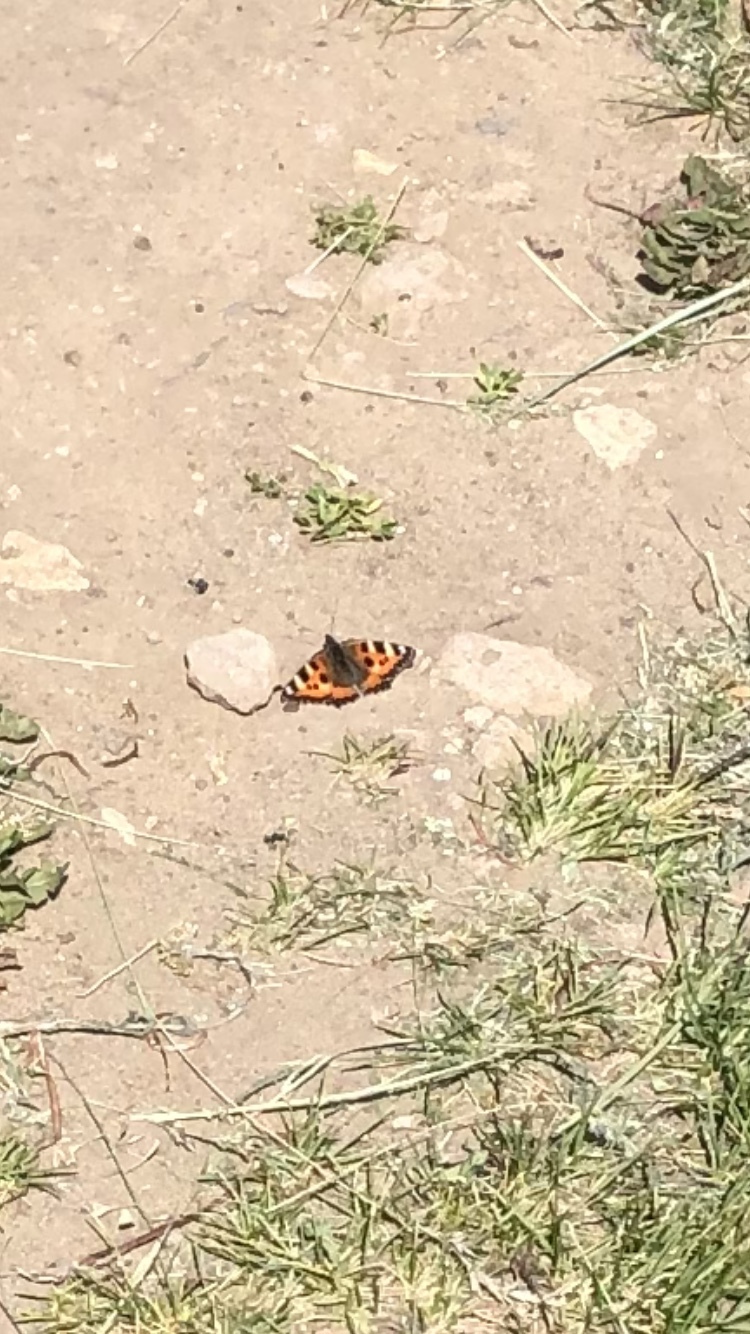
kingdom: Animalia
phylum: Arthropoda
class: Insecta
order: Lepidoptera
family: Nymphalidae
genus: Aglais
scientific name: Aglais urticae
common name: Small tortoiseshell
